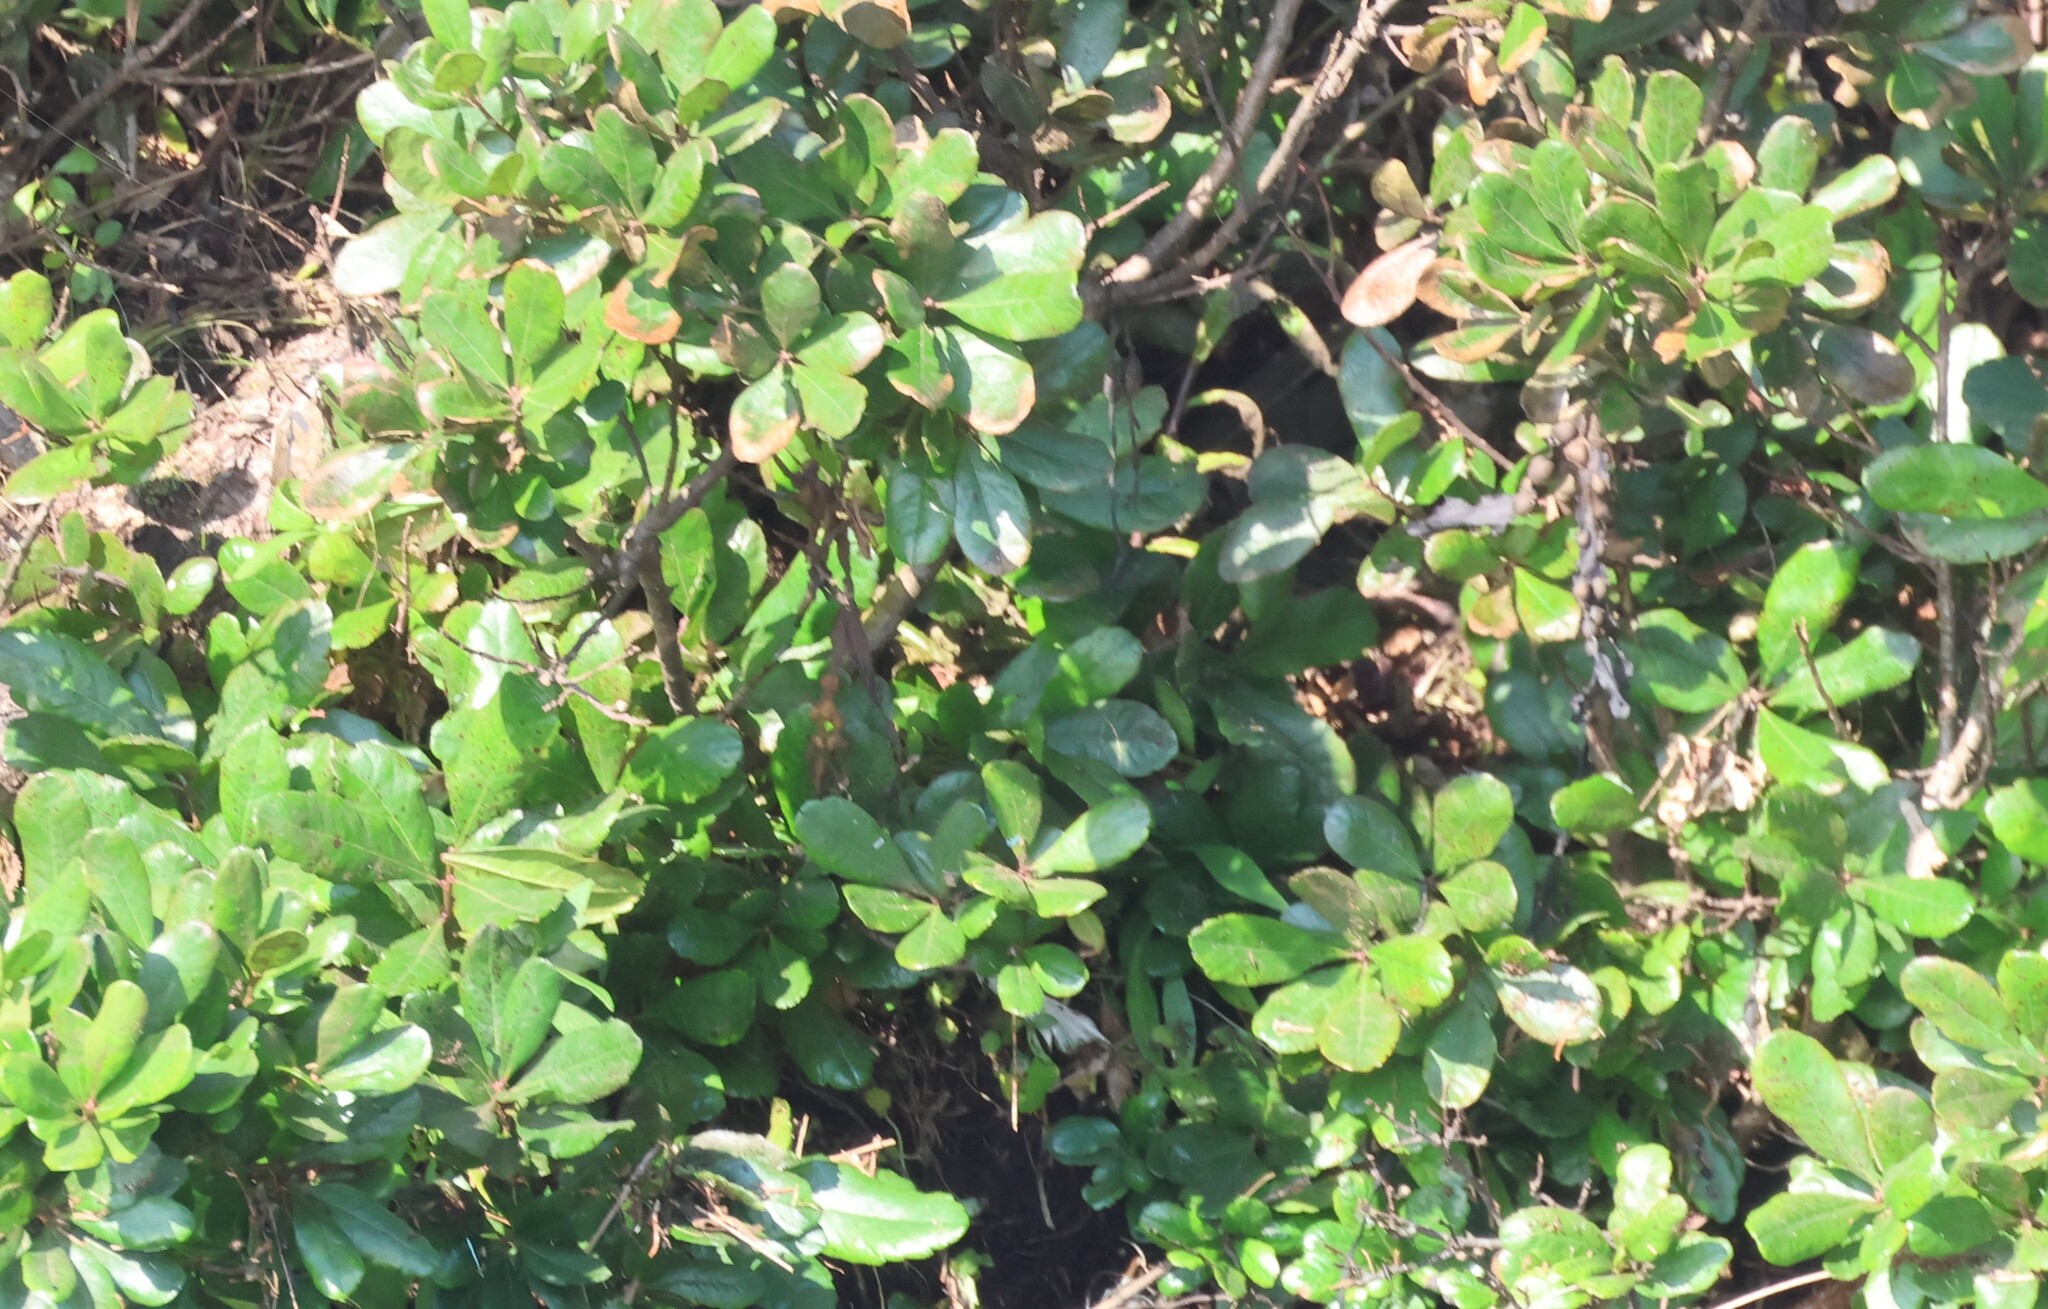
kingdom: Plantae
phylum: Tracheophyta
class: Magnoliopsida
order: Fagales
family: Myricaceae
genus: Morella
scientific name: Morella pensylvanica
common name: Northern bayberry
